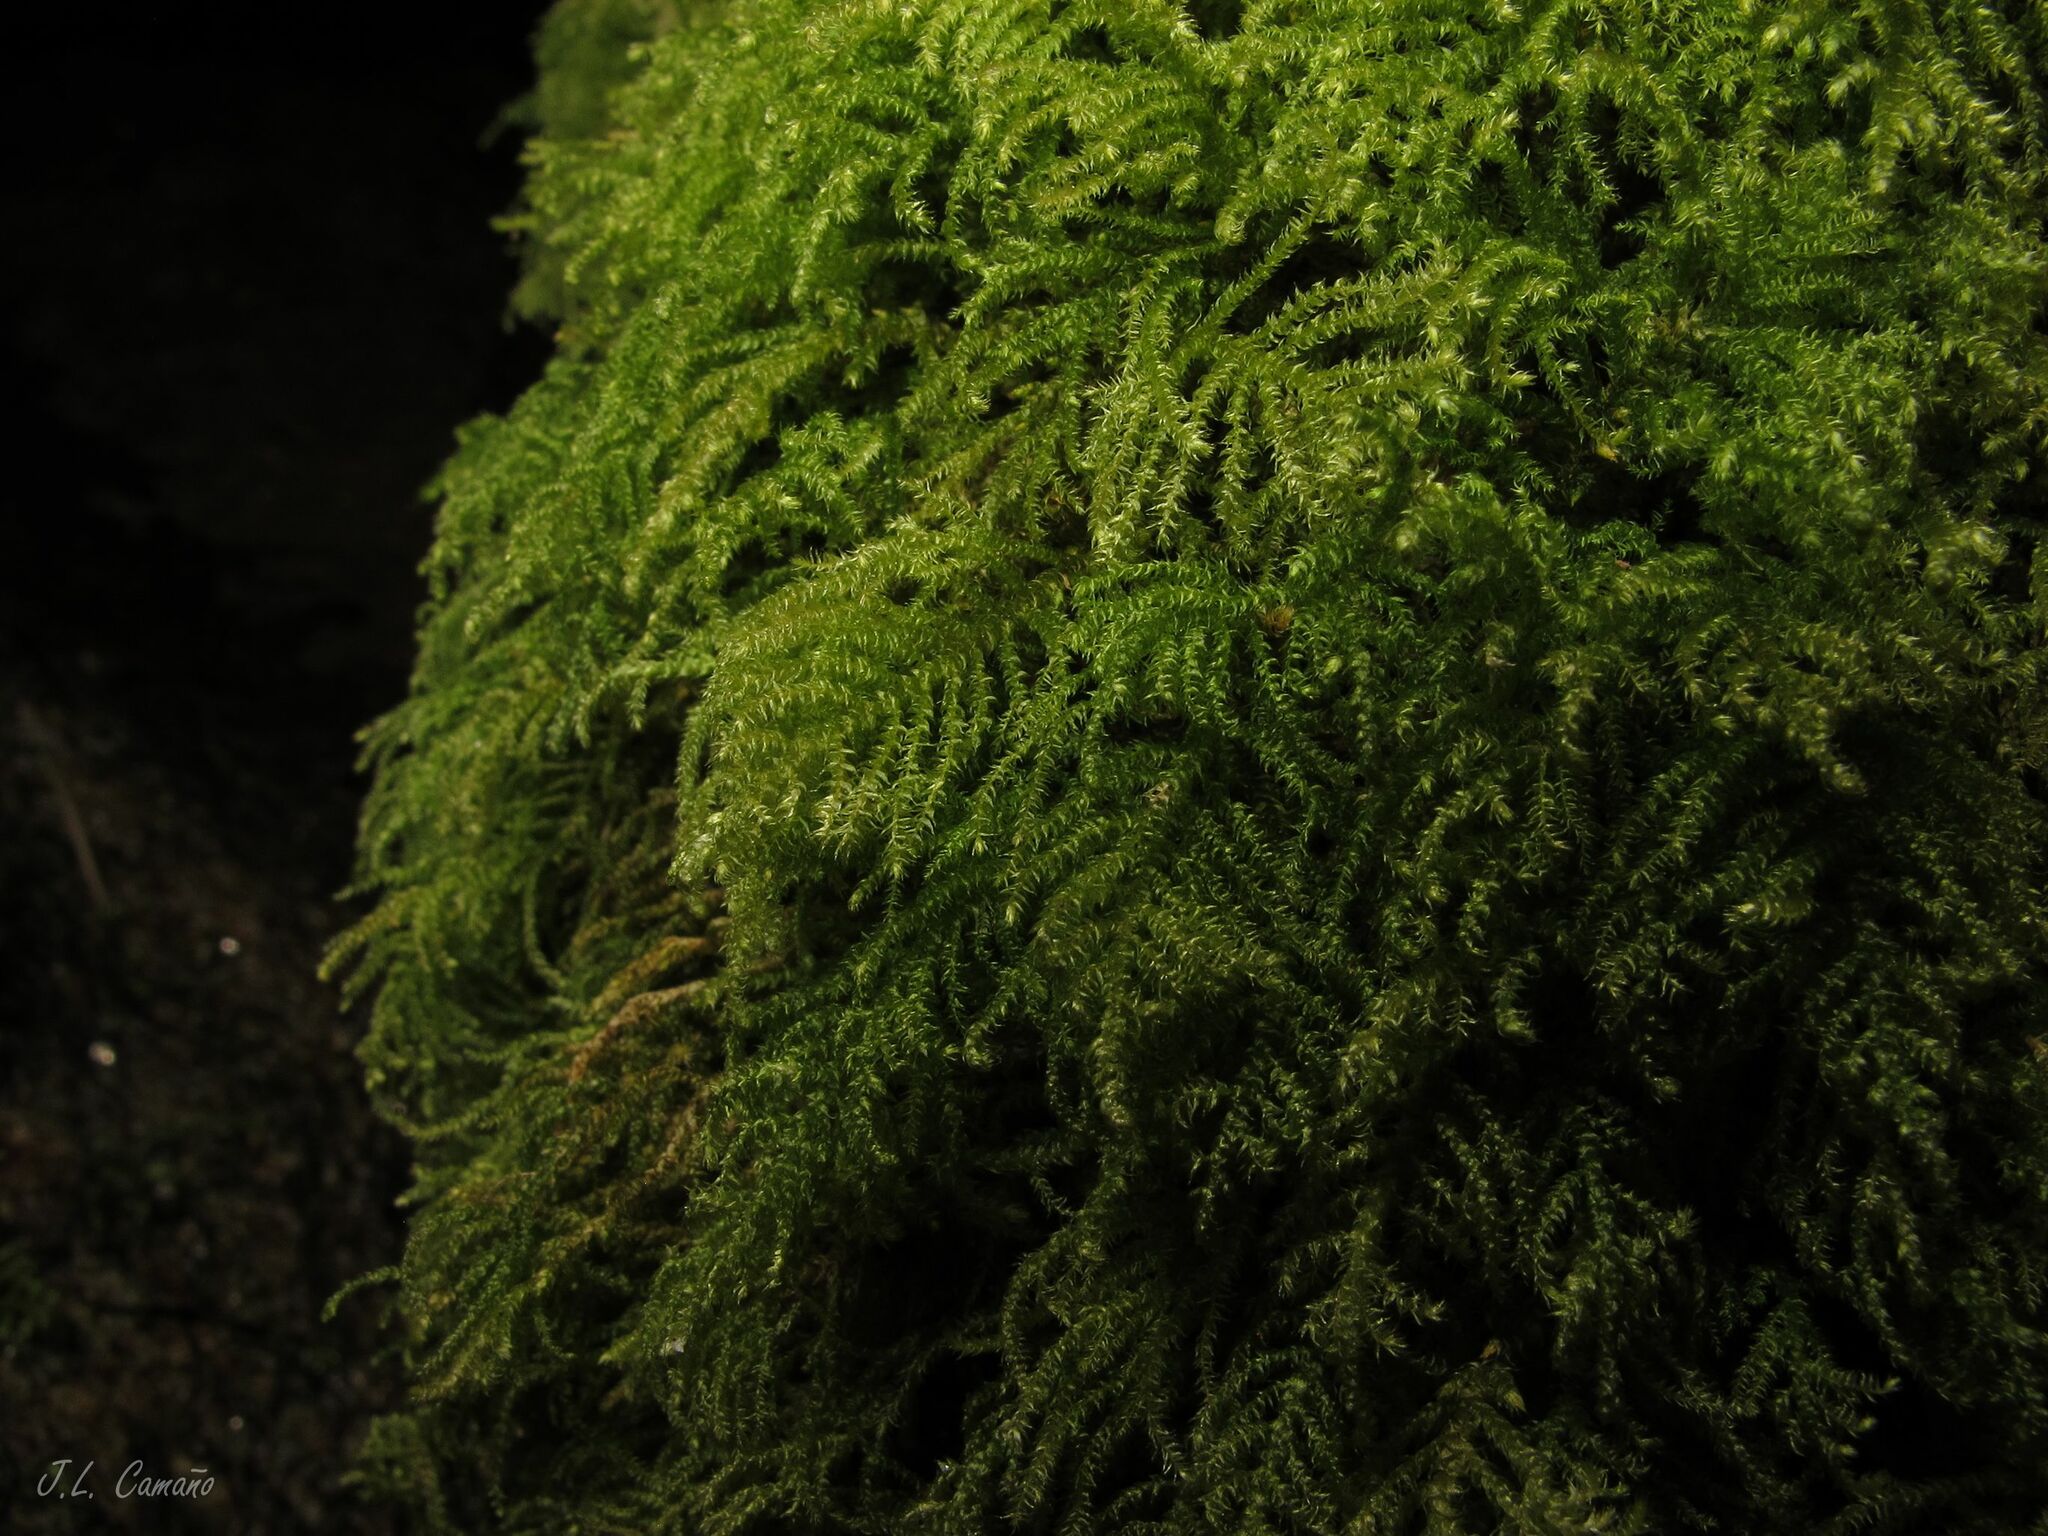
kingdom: Plantae
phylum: Bryophyta
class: Bryopsida
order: Hypnales
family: Myuriaceae
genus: Hyocomium
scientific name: Hyocomium armoricum
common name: Flagellate feather-moss
